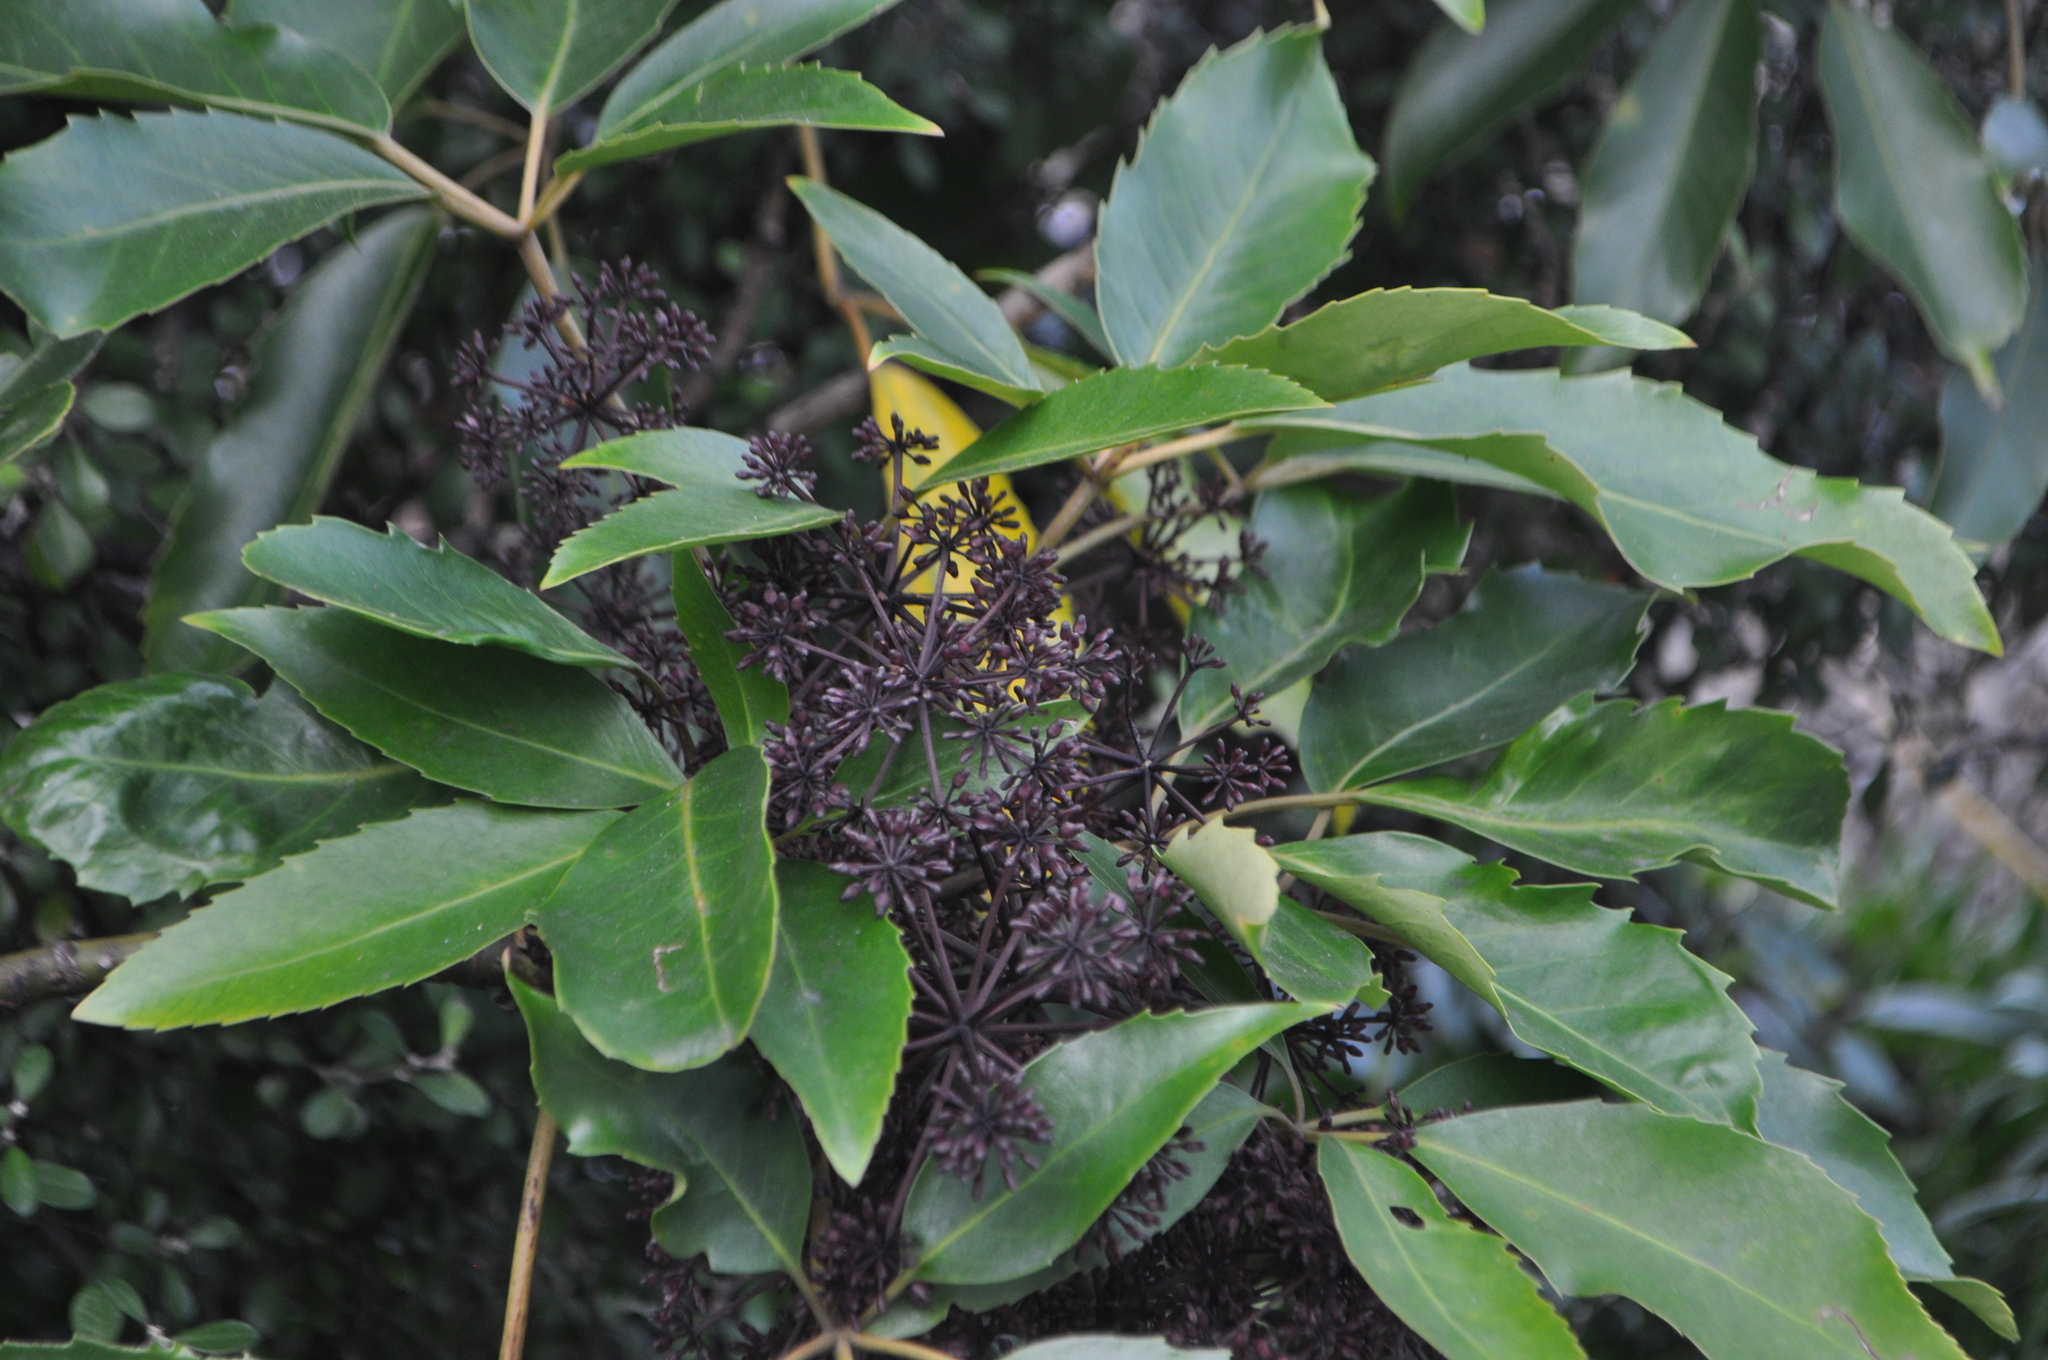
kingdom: Plantae
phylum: Tracheophyta
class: Magnoliopsida
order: Apiales
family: Araliaceae
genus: Neopanax
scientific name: Neopanax arboreus
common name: Five-fingers
